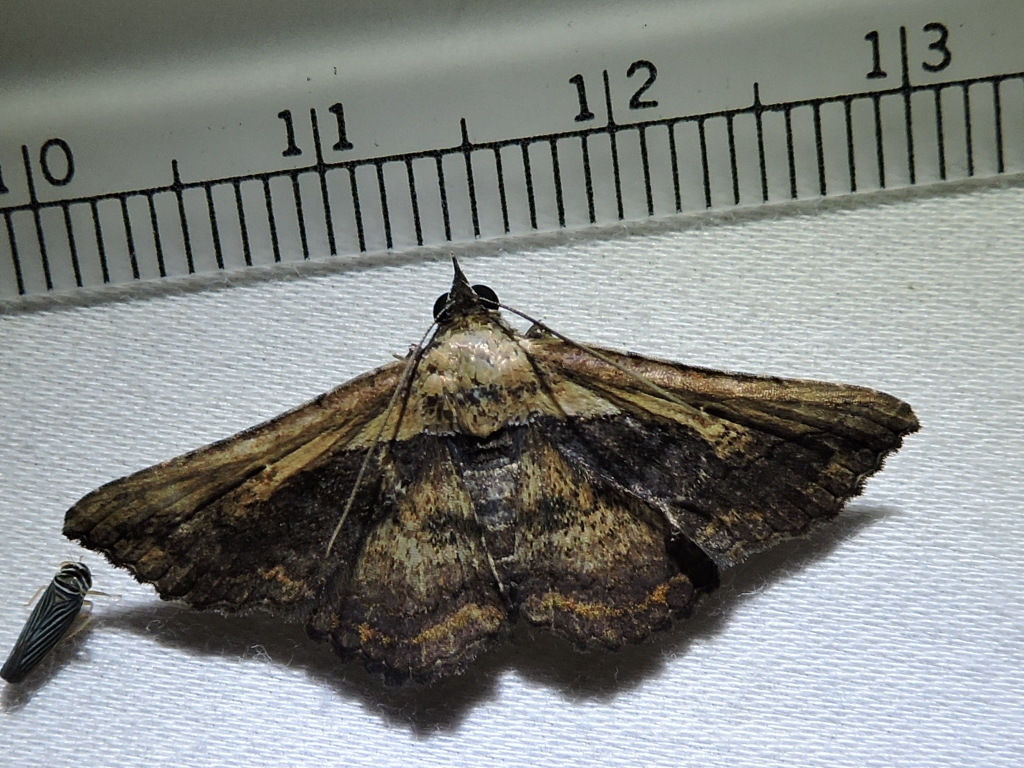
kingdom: Animalia
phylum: Arthropoda
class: Insecta
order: Lepidoptera
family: Erebidae
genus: Selenisa
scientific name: Selenisa sueroides
